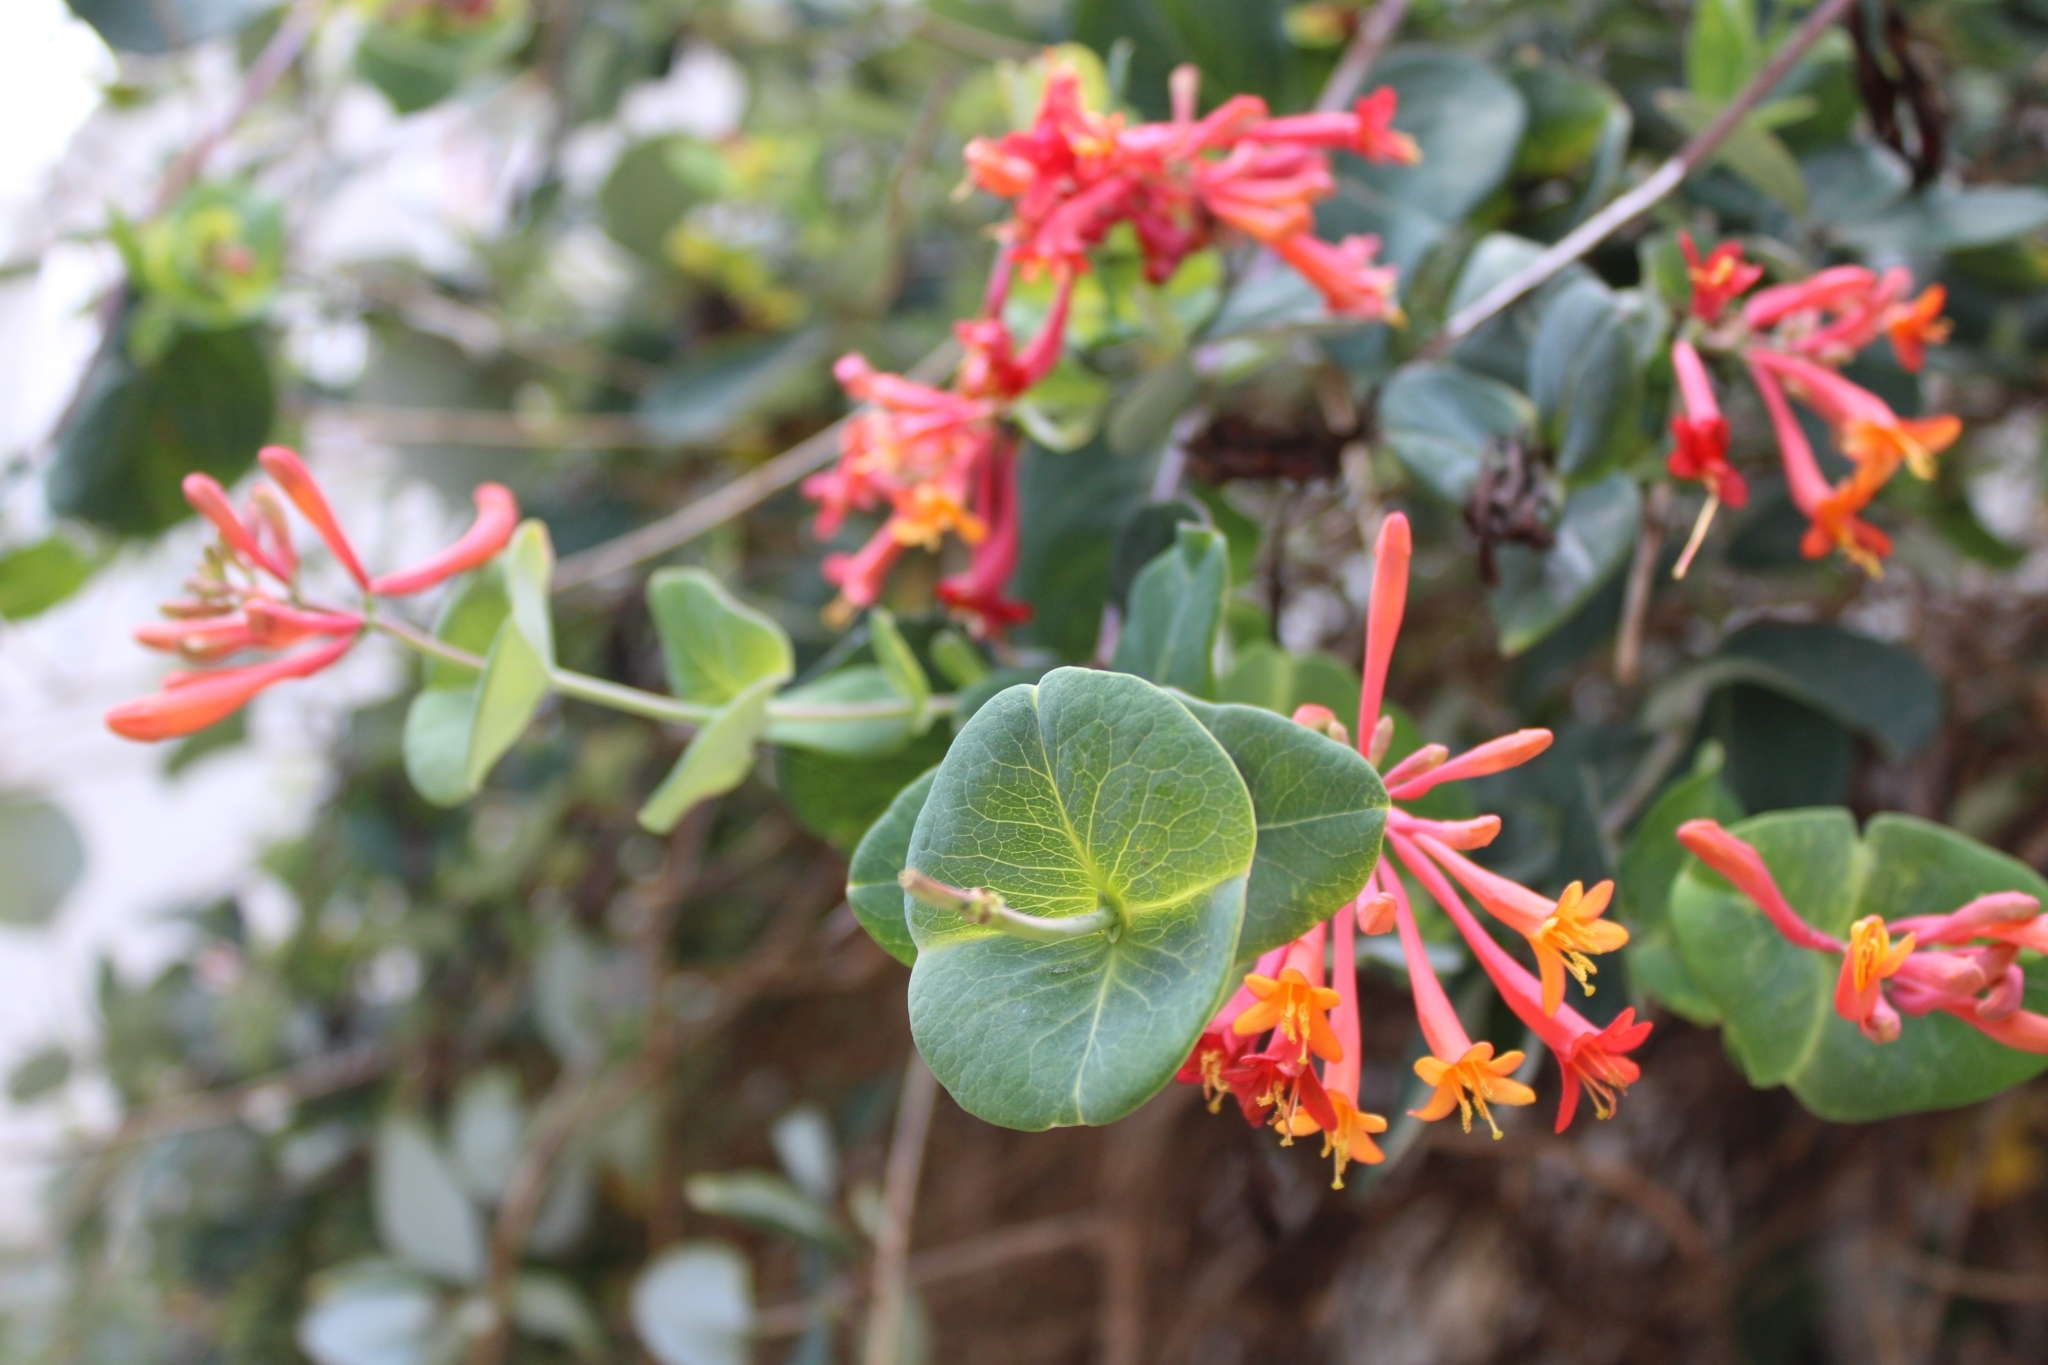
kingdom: Plantae
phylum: Tracheophyta
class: Magnoliopsida
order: Dipsacales
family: Caprifoliaceae
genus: Lonicera
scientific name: Lonicera sempervirens
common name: Coral honeysuckle
